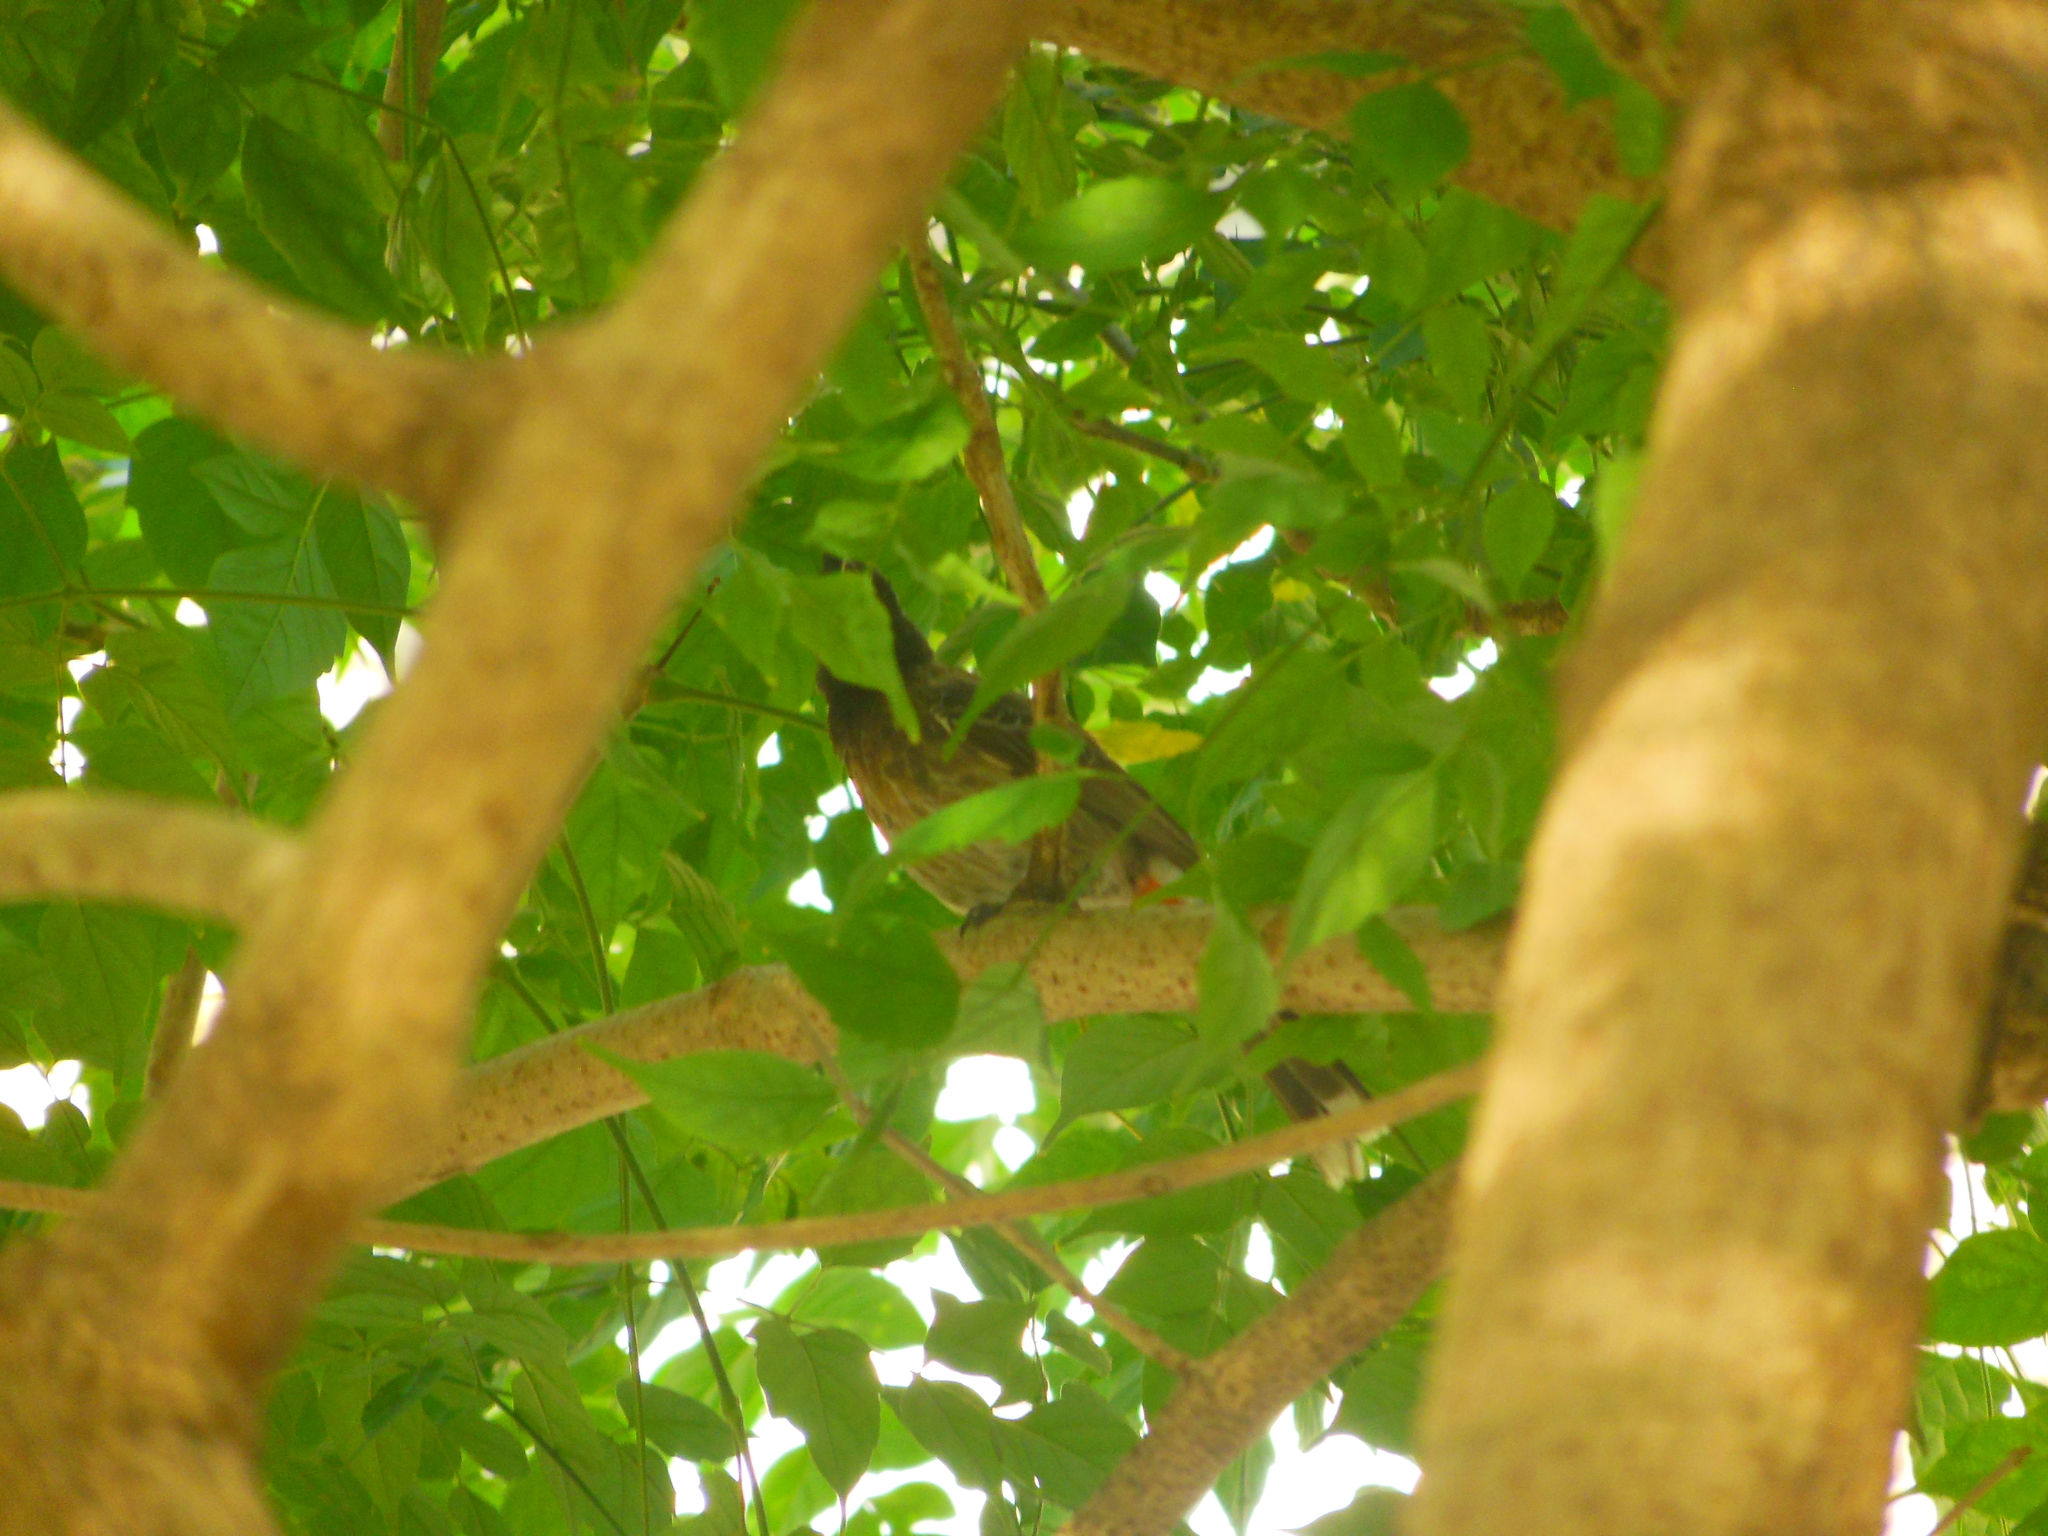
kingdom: Animalia
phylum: Chordata
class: Aves
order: Passeriformes
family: Pycnonotidae
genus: Pycnonotus
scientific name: Pycnonotus cafer
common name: Red-vented bulbul
